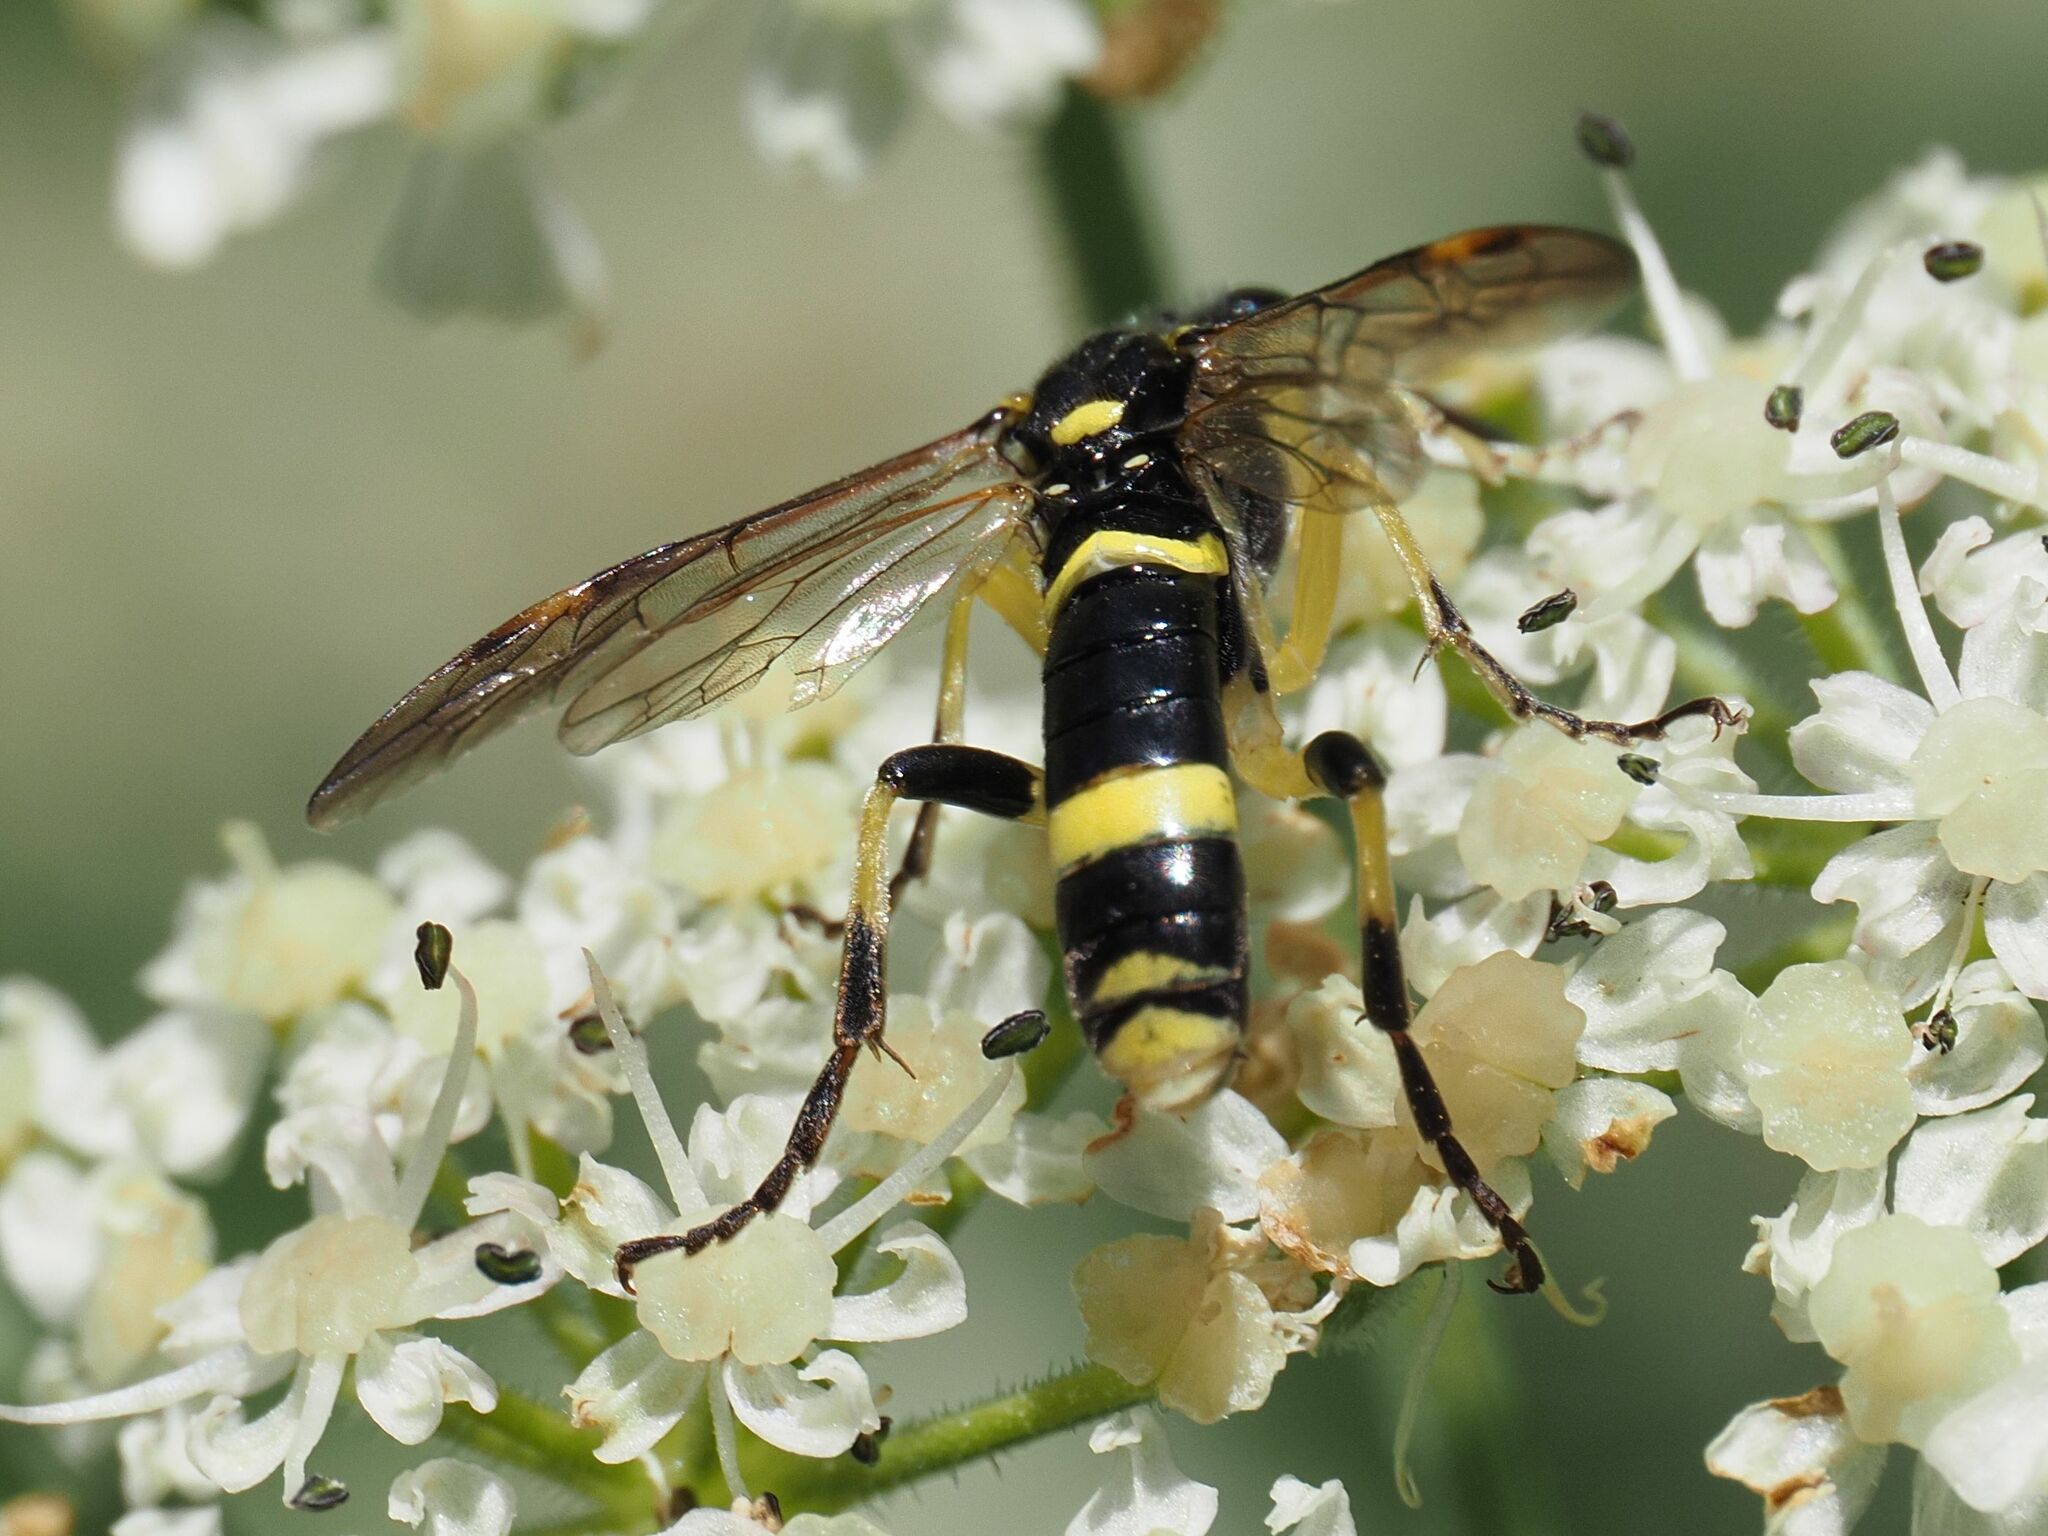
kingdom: Animalia
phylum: Arthropoda
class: Insecta
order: Hymenoptera
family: Tenthredinidae
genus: Tenthredo
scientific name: Tenthredo amoena
